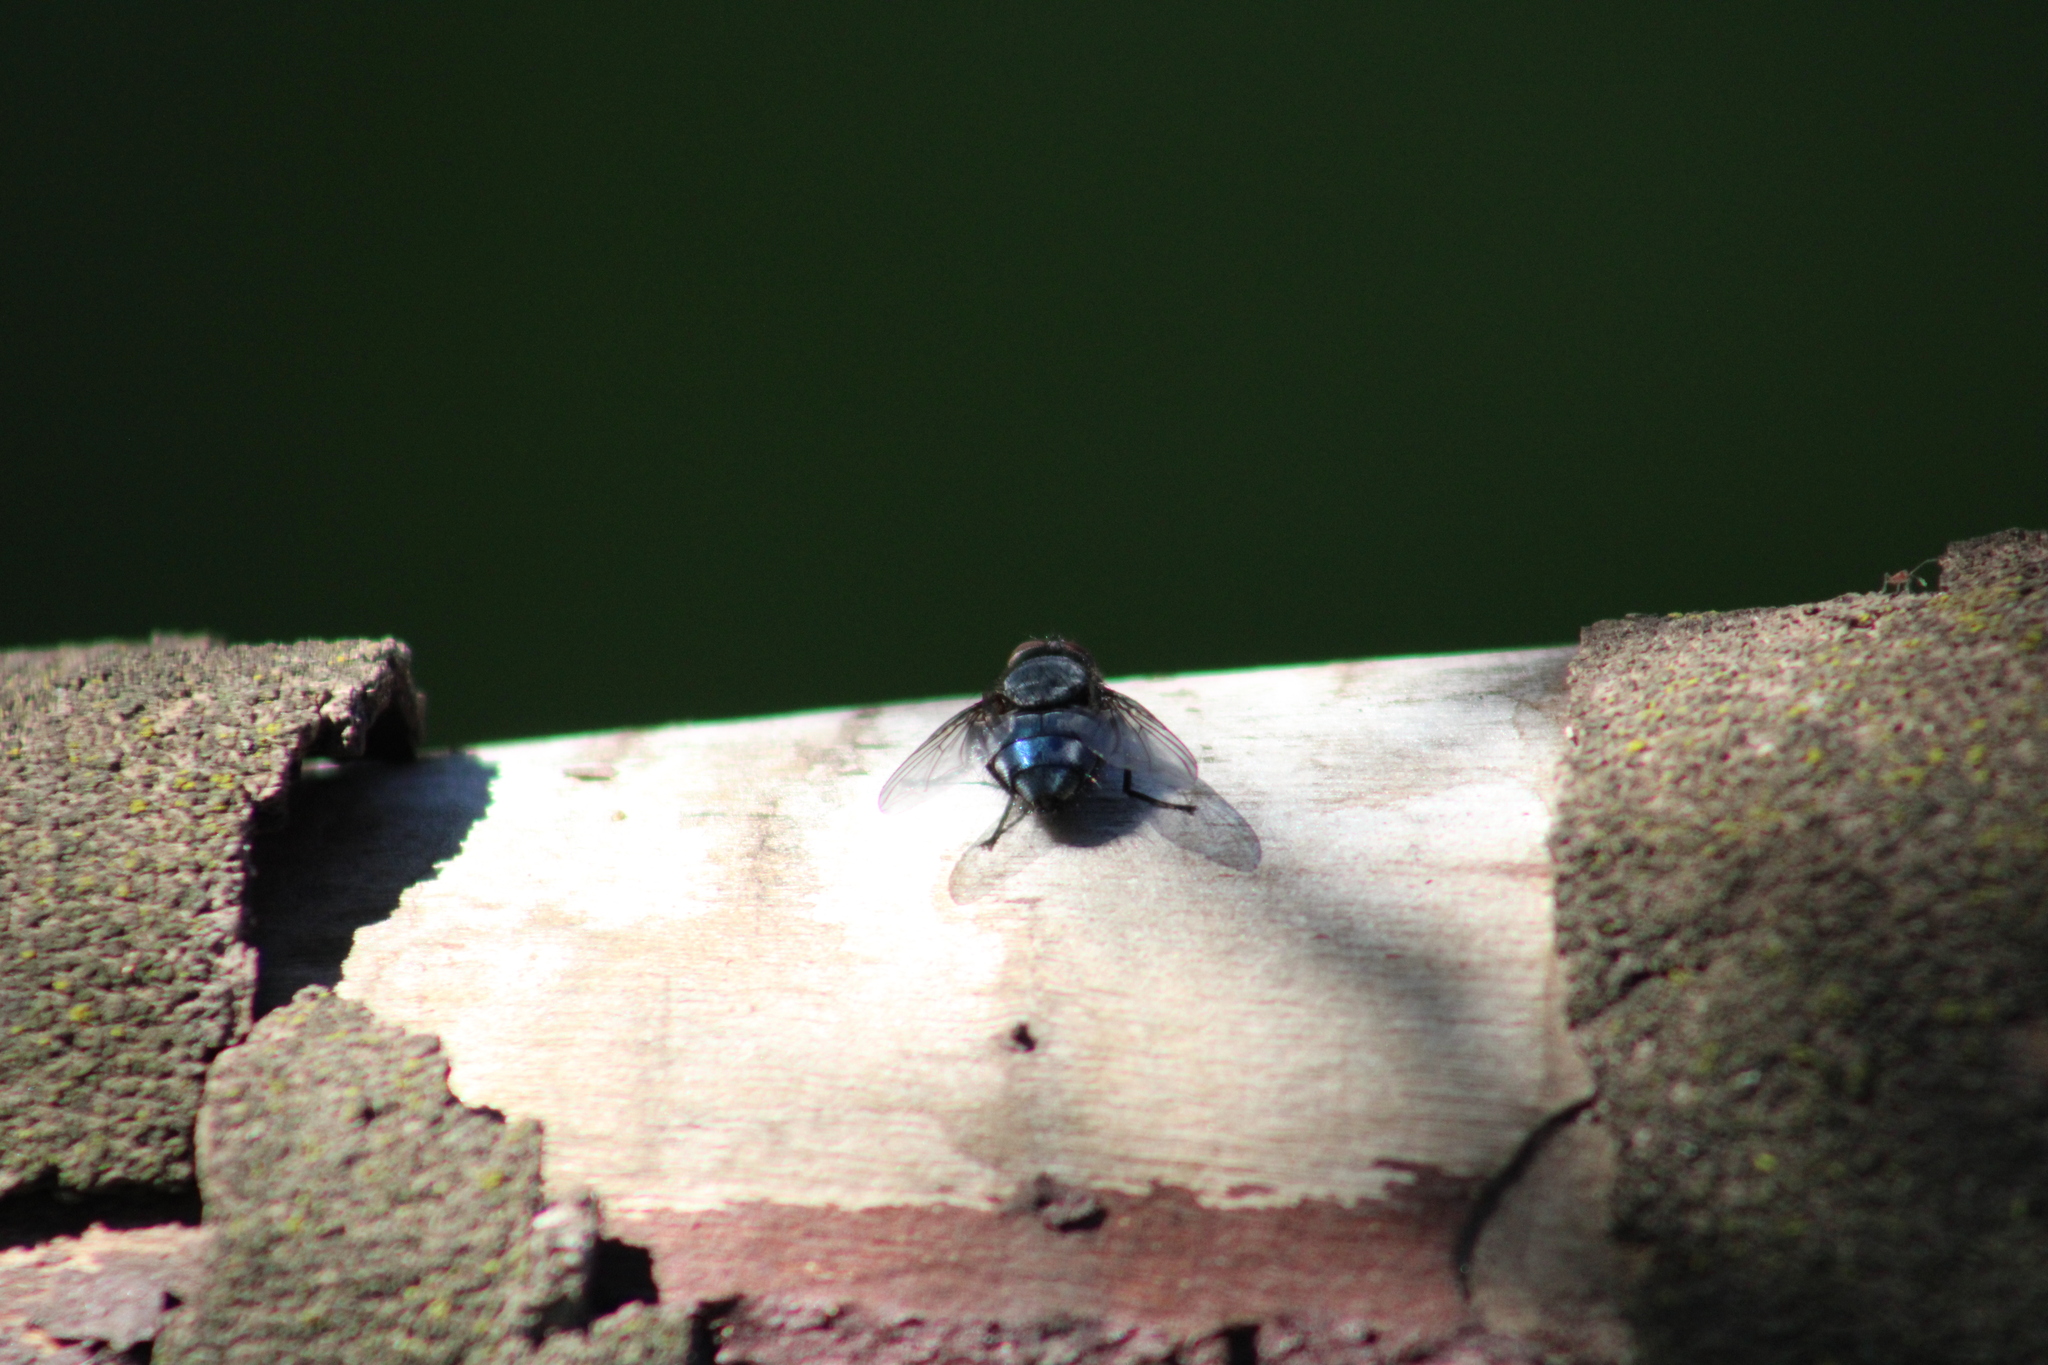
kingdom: Animalia
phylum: Arthropoda
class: Insecta
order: Diptera
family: Calliphoridae
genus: Calliphora
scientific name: Calliphora vicina
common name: Common blow flie
